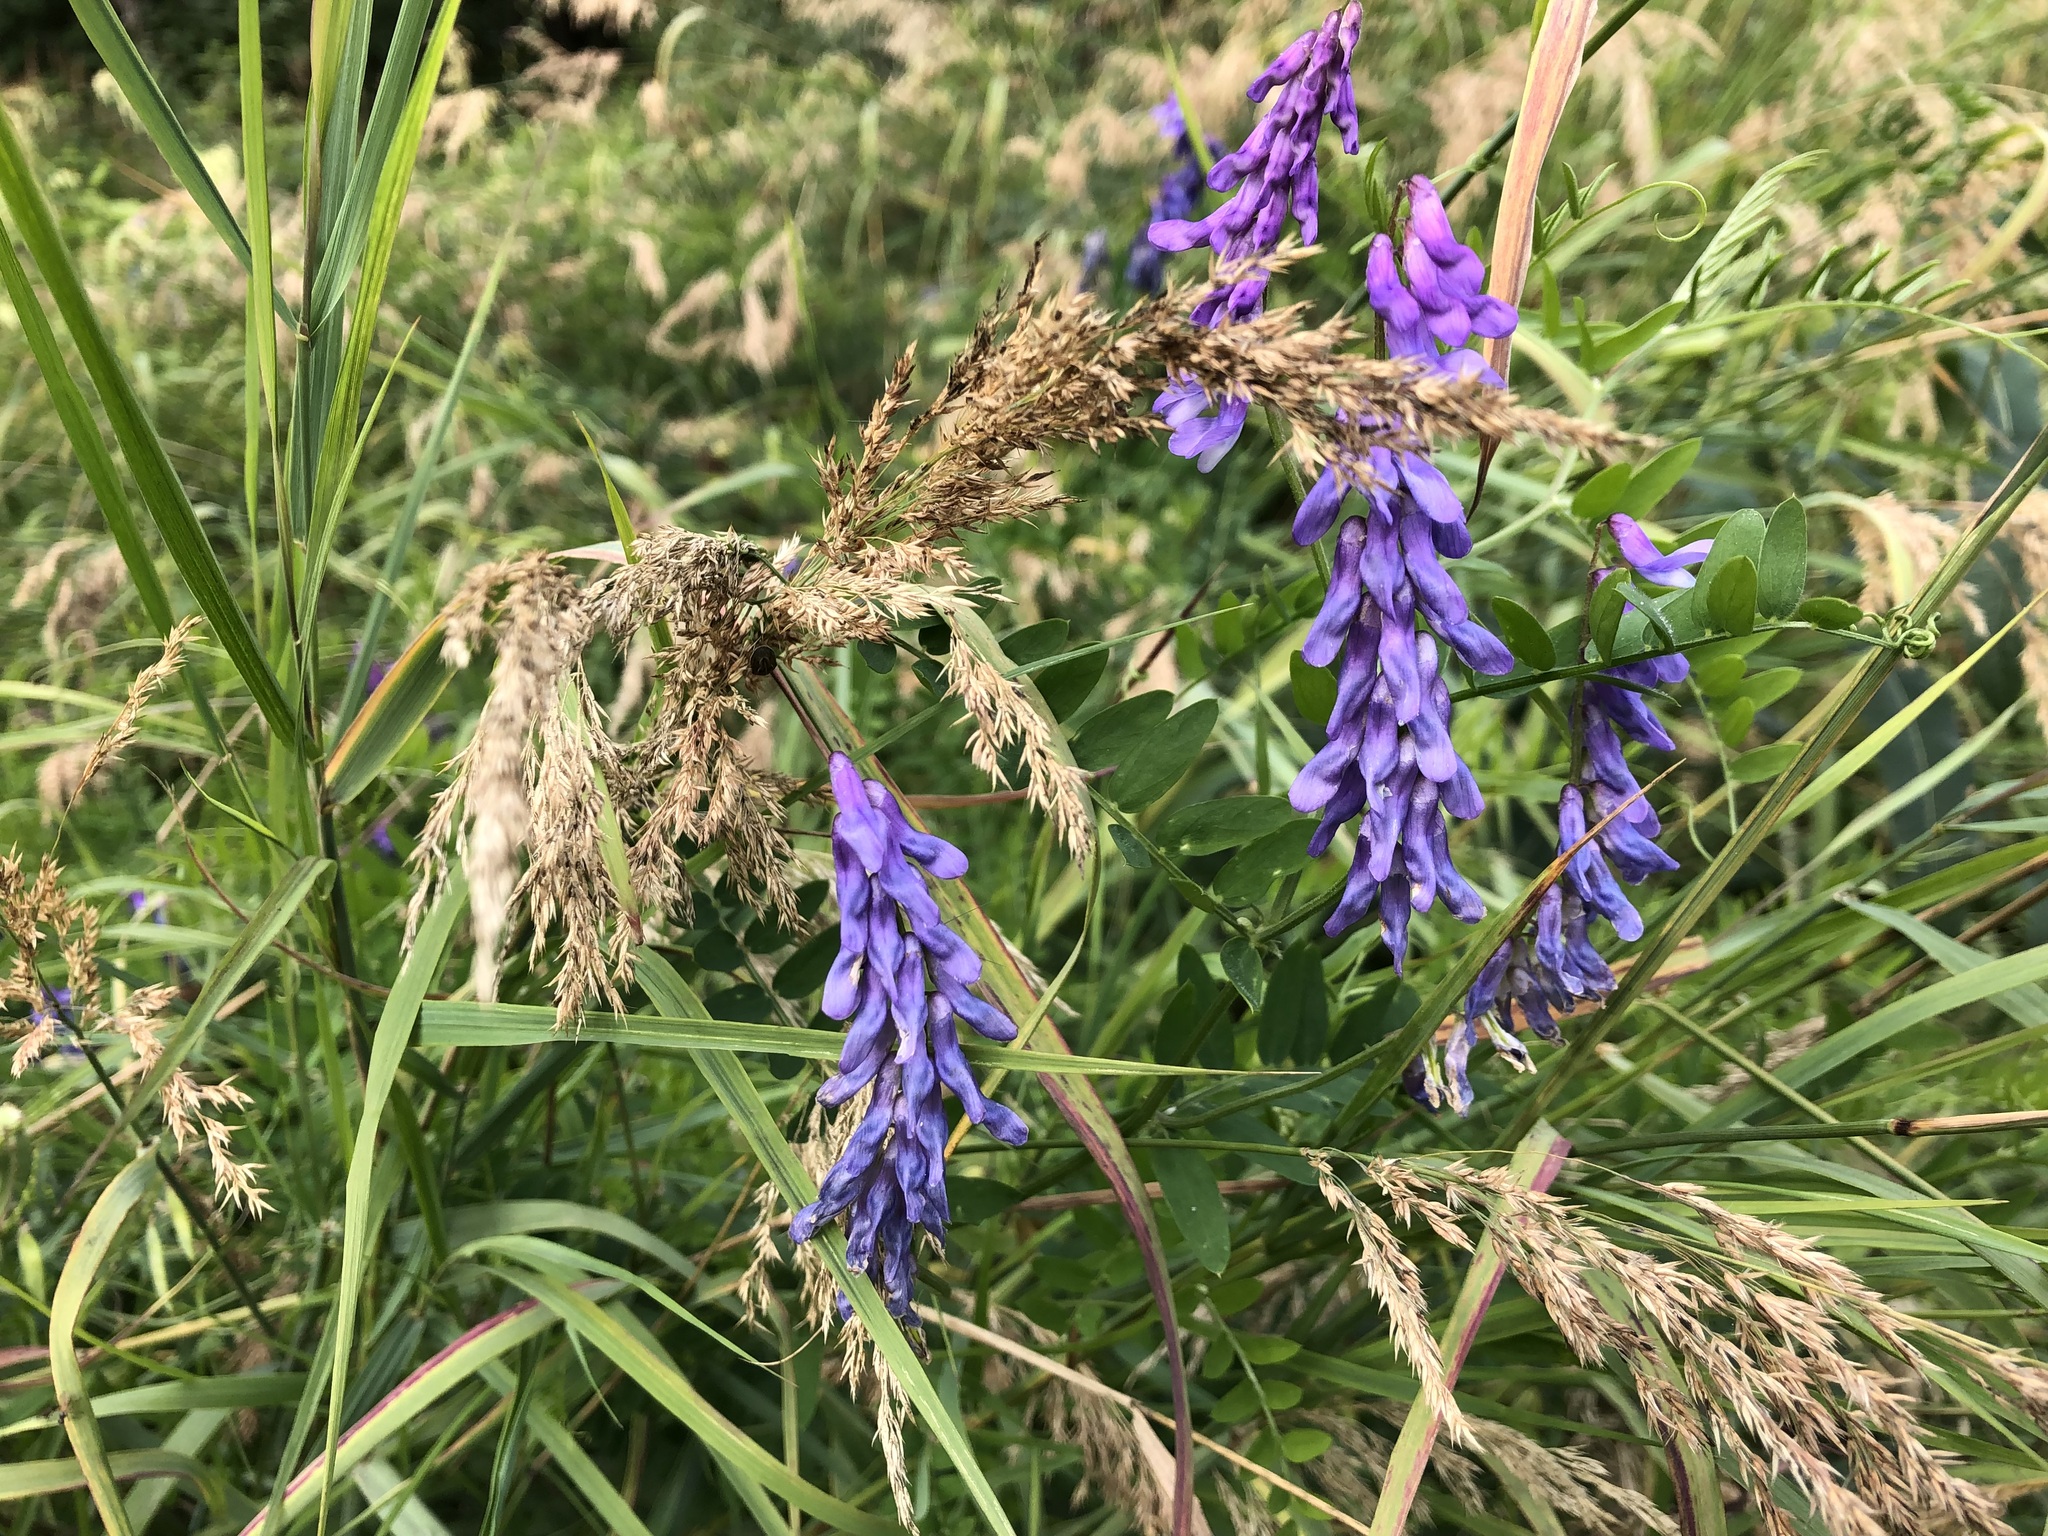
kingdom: Plantae
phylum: Tracheophyta
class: Magnoliopsida
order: Fabales
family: Fabaceae
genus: Vicia
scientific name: Vicia cracca
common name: Bird vetch
